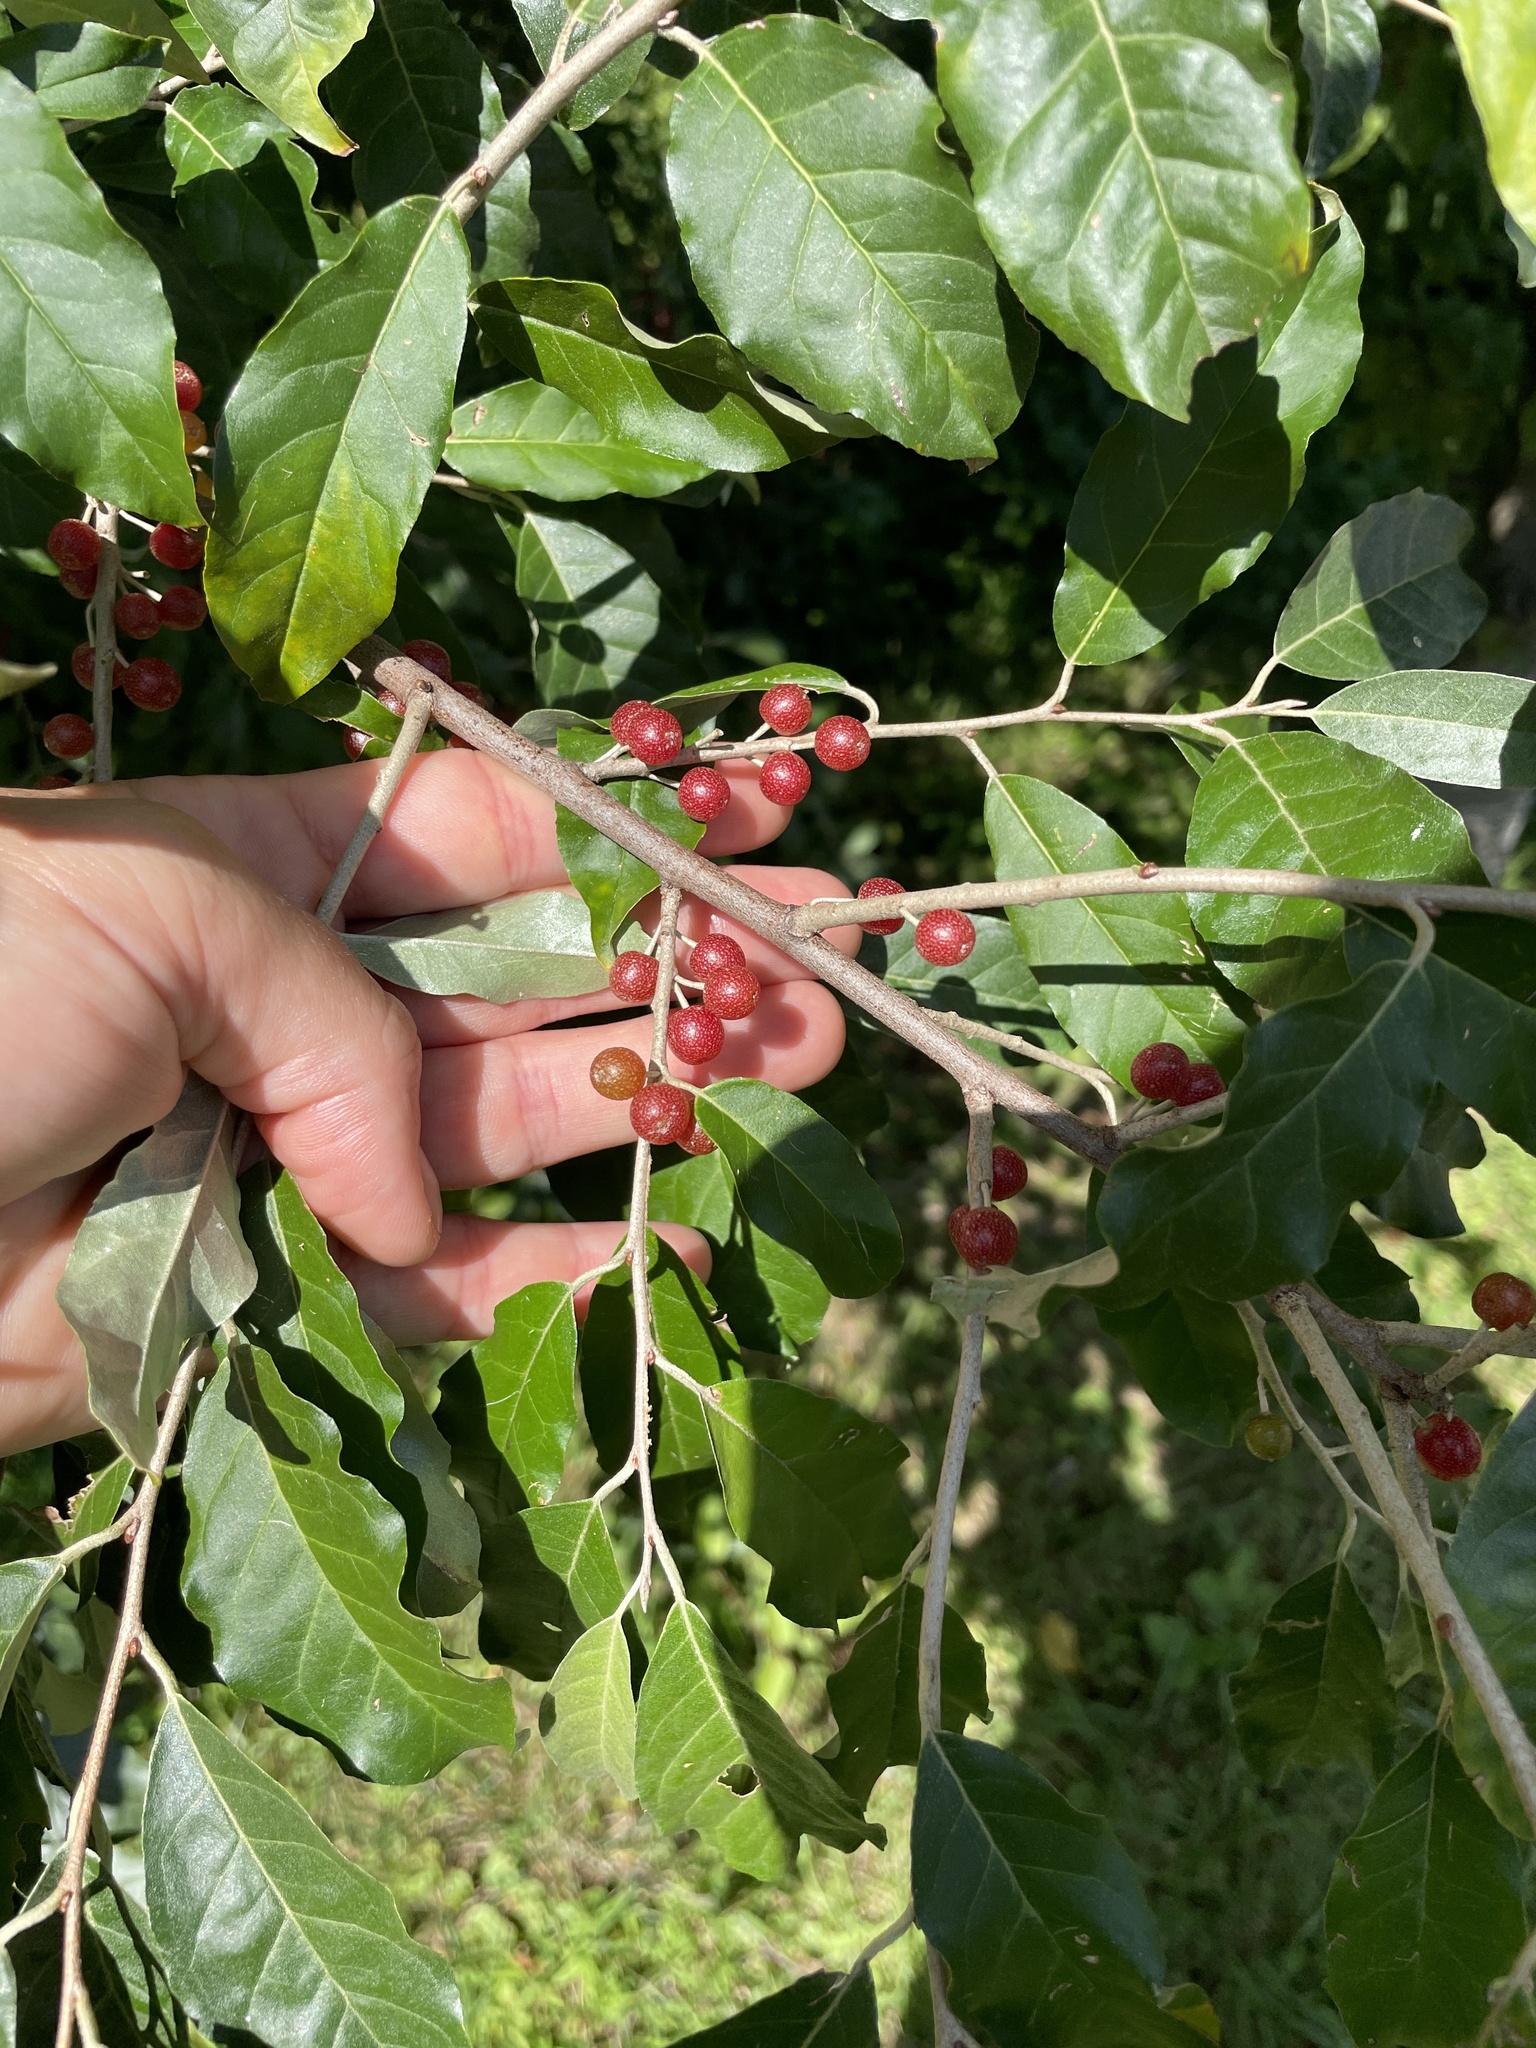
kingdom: Plantae
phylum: Tracheophyta
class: Magnoliopsida
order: Rosales
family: Elaeagnaceae
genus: Elaeagnus
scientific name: Elaeagnus umbellata
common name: Autumn olive
